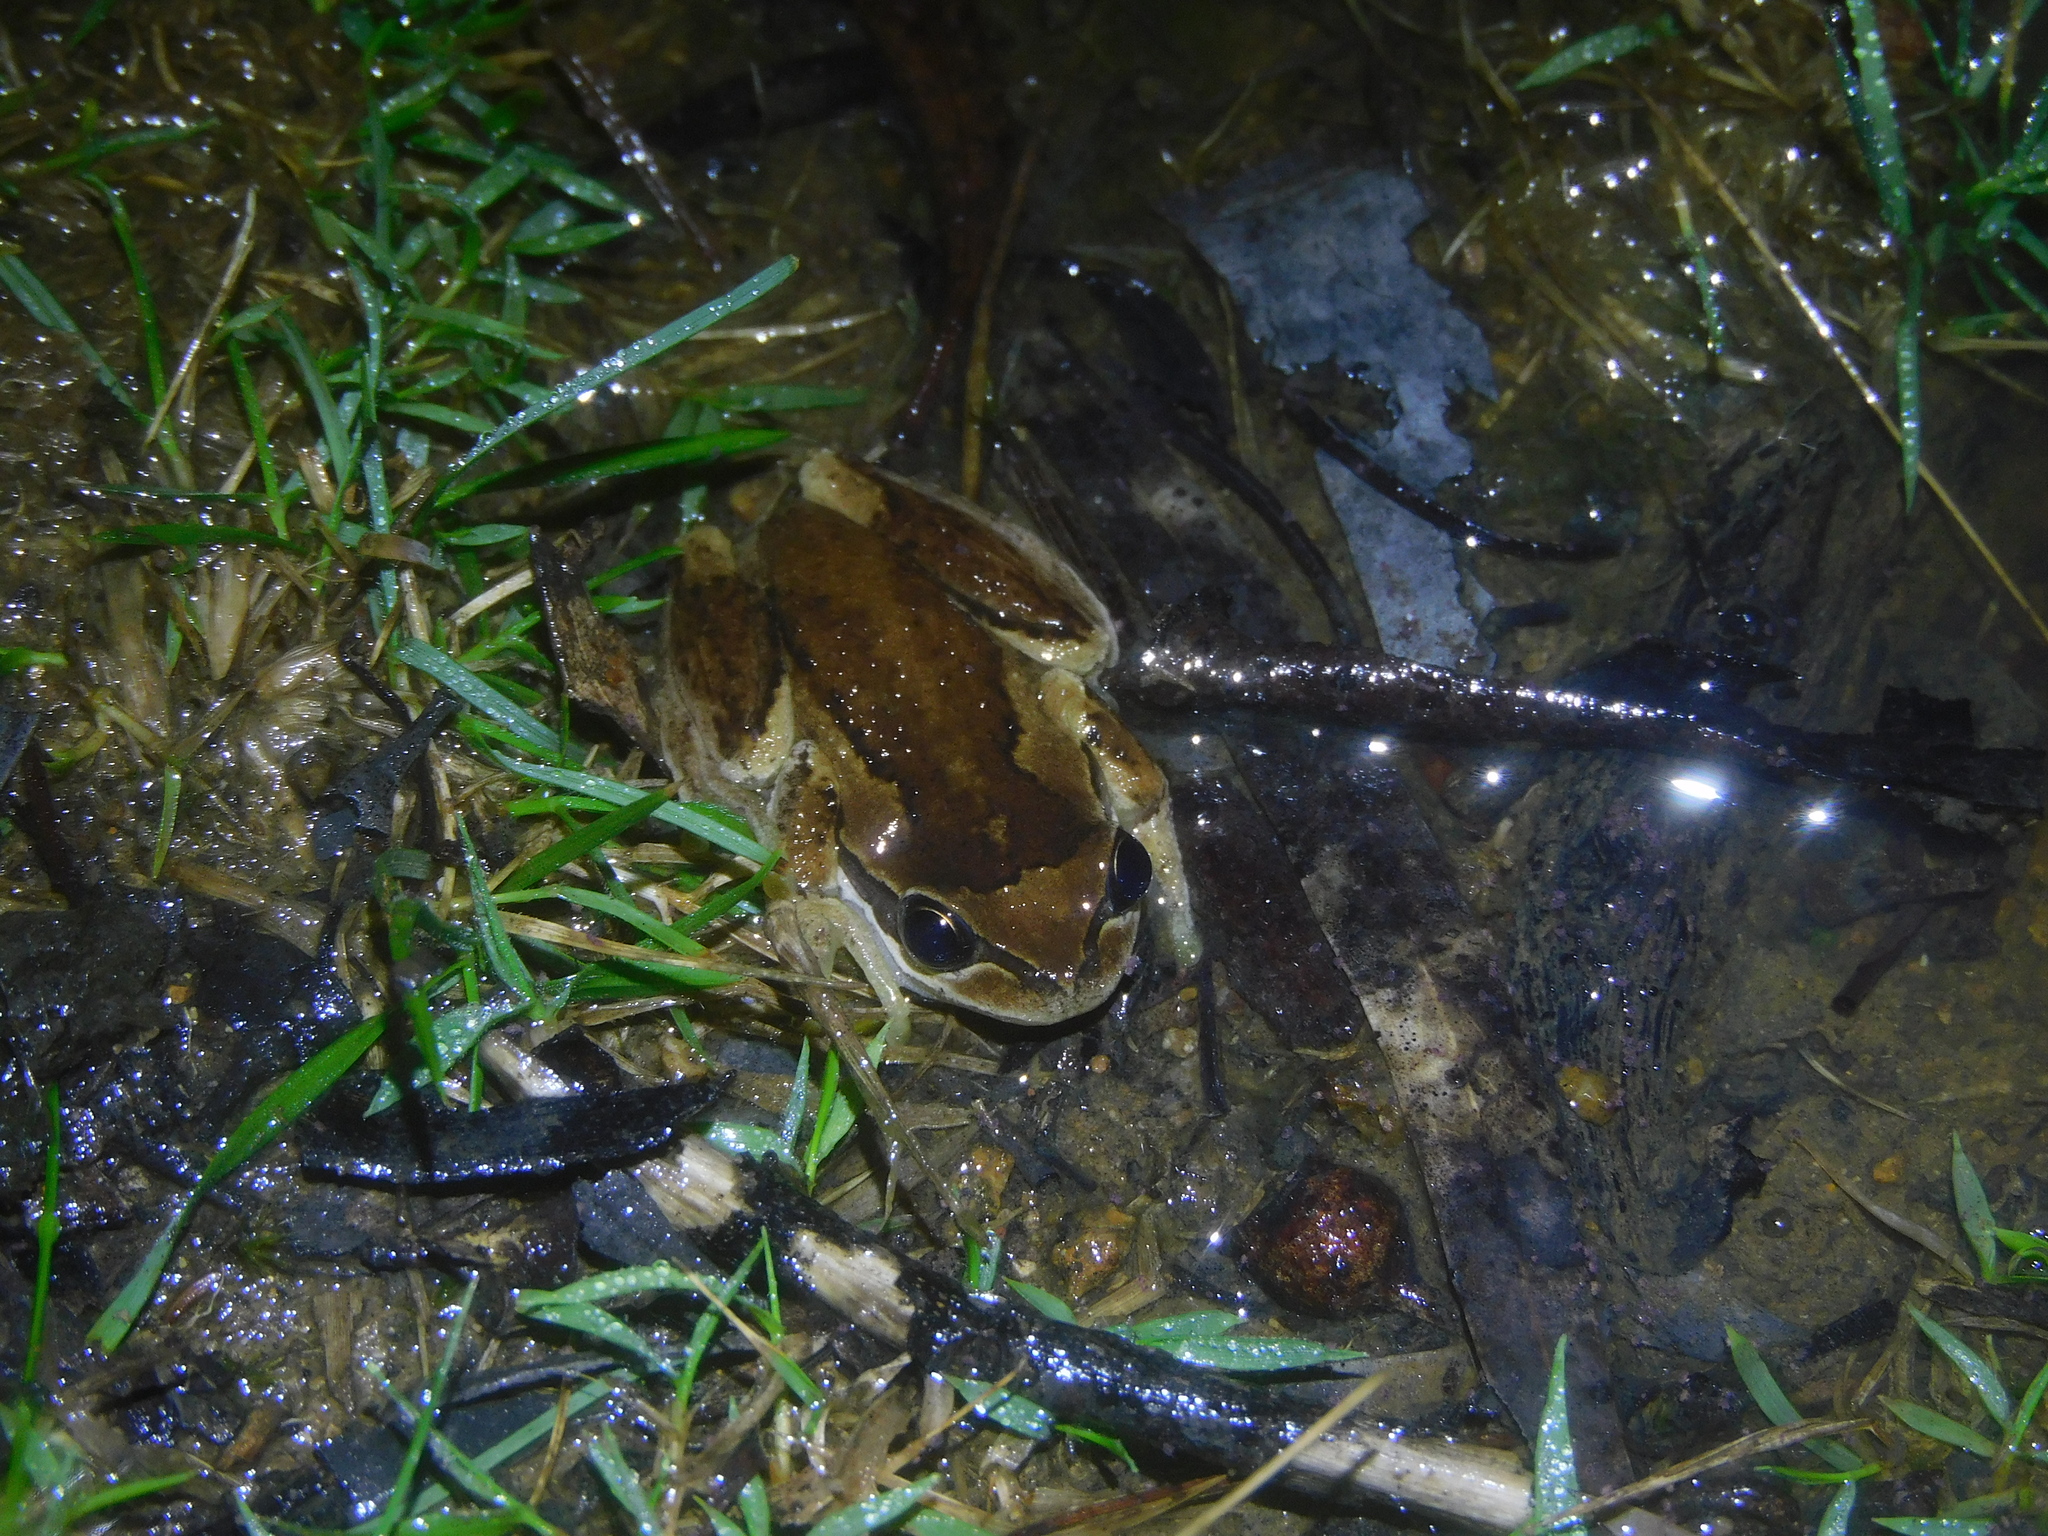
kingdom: Animalia
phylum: Chordata
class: Amphibia
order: Anura
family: Pelodryadidae
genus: Litoria
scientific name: Litoria ewingii
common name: Southern brown tree frog
